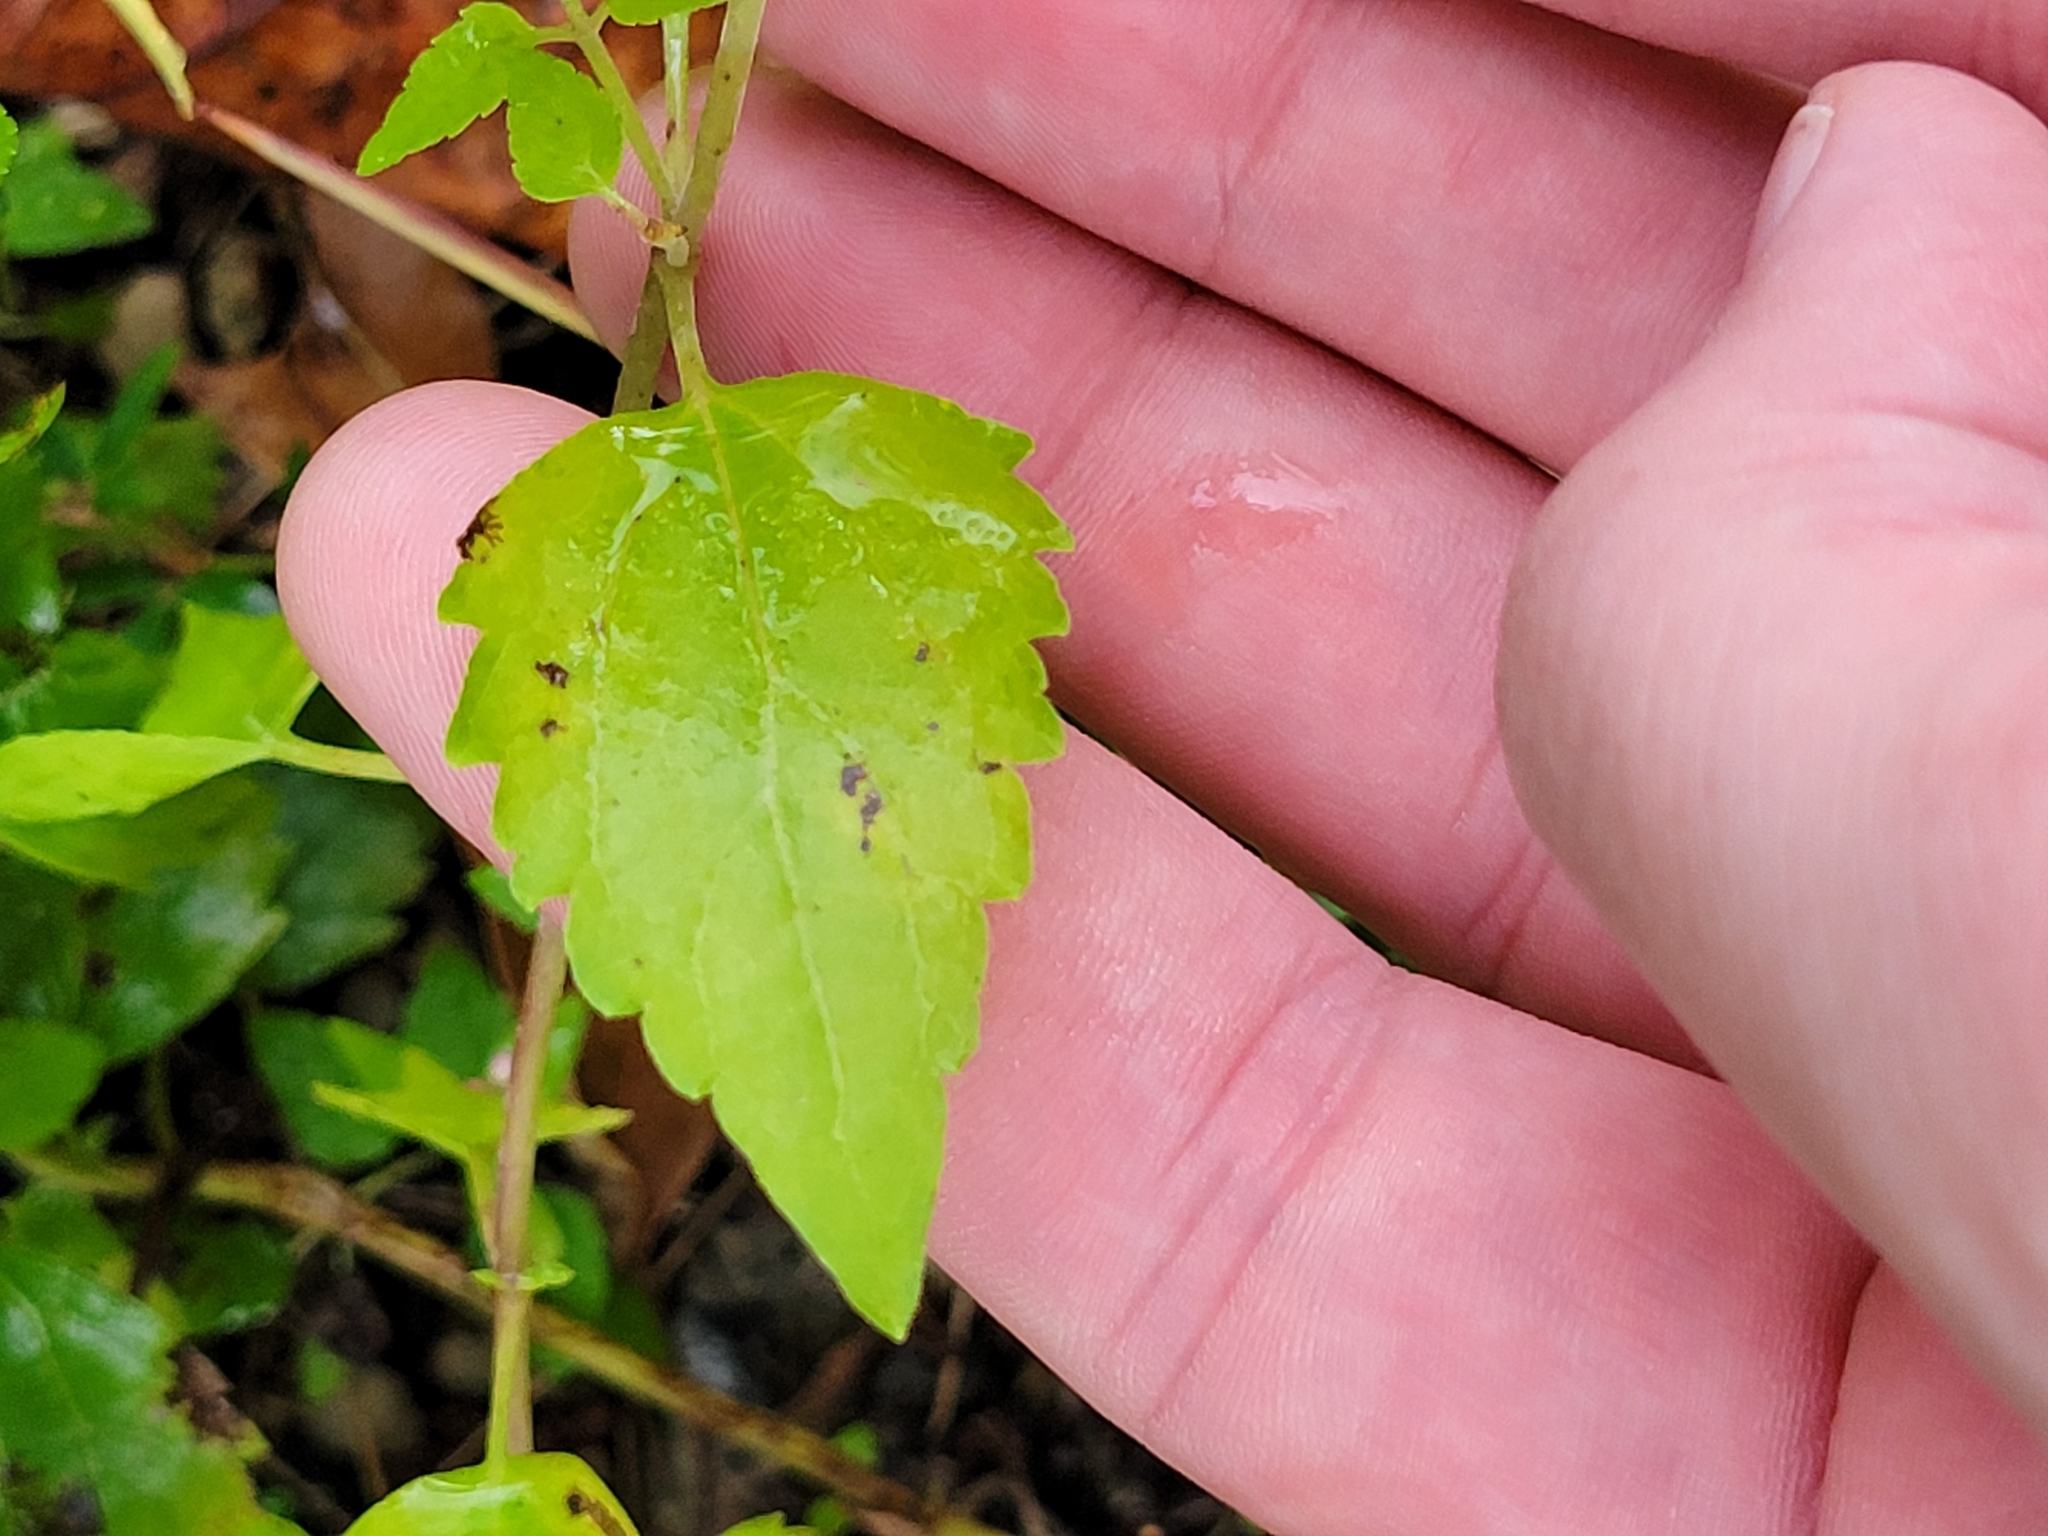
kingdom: Plantae
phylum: Tracheophyta
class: Magnoliopsida
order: Asterales
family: Asteraceae
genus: Ageratina
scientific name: Ageratina altissima
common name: White snakeroot
